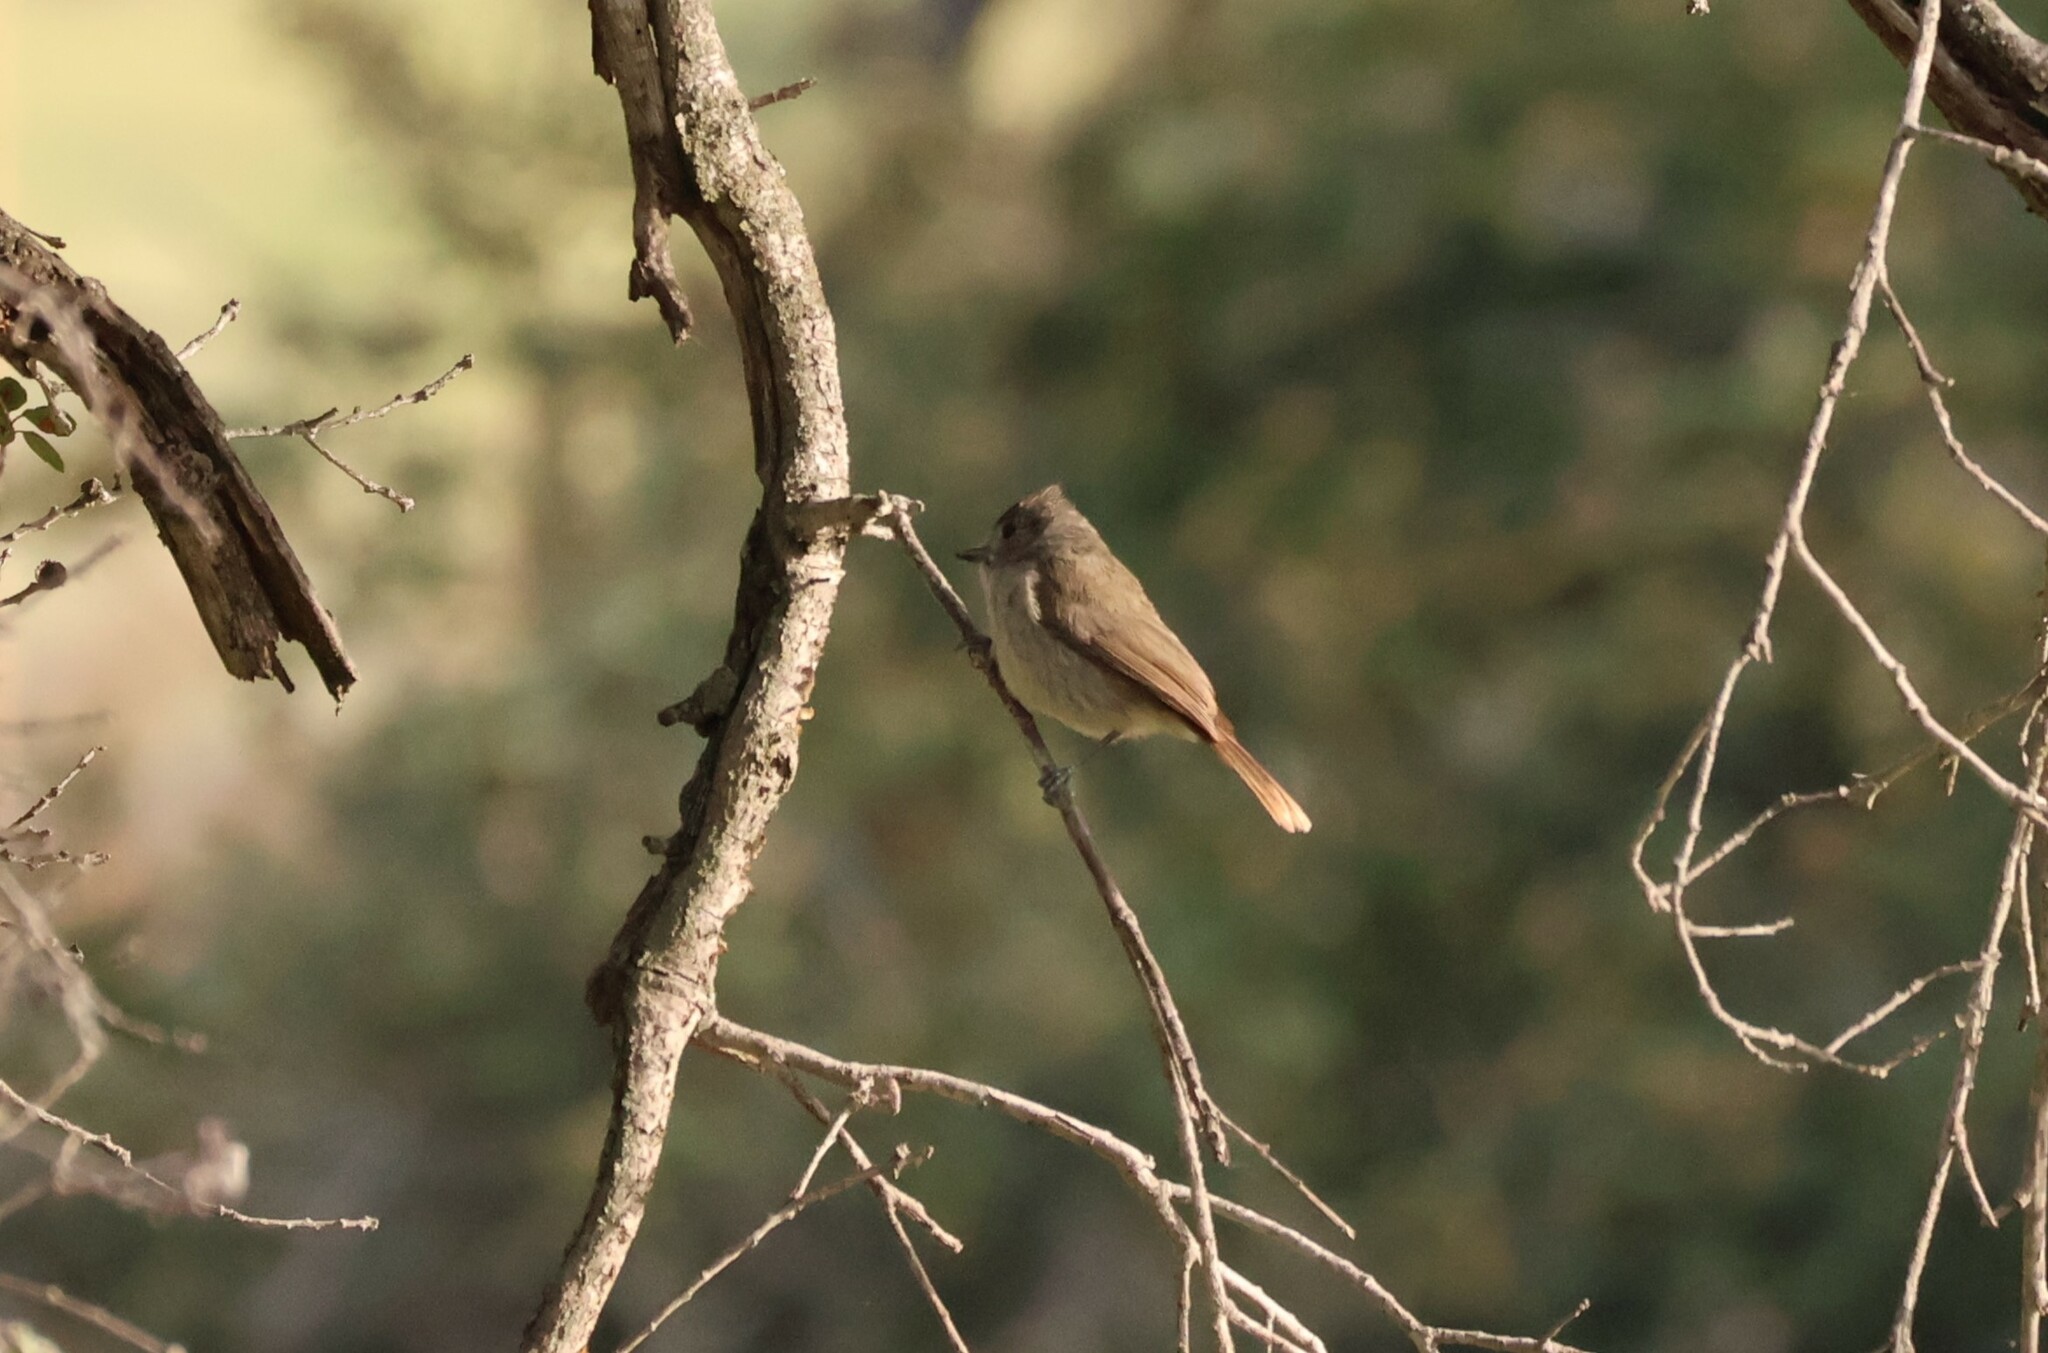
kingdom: Animalia
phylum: Chordata
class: Aves
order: Passeriformes
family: Paridae
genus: Baeolophus
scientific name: Baeolophus inornatus
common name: Oak titmouse
